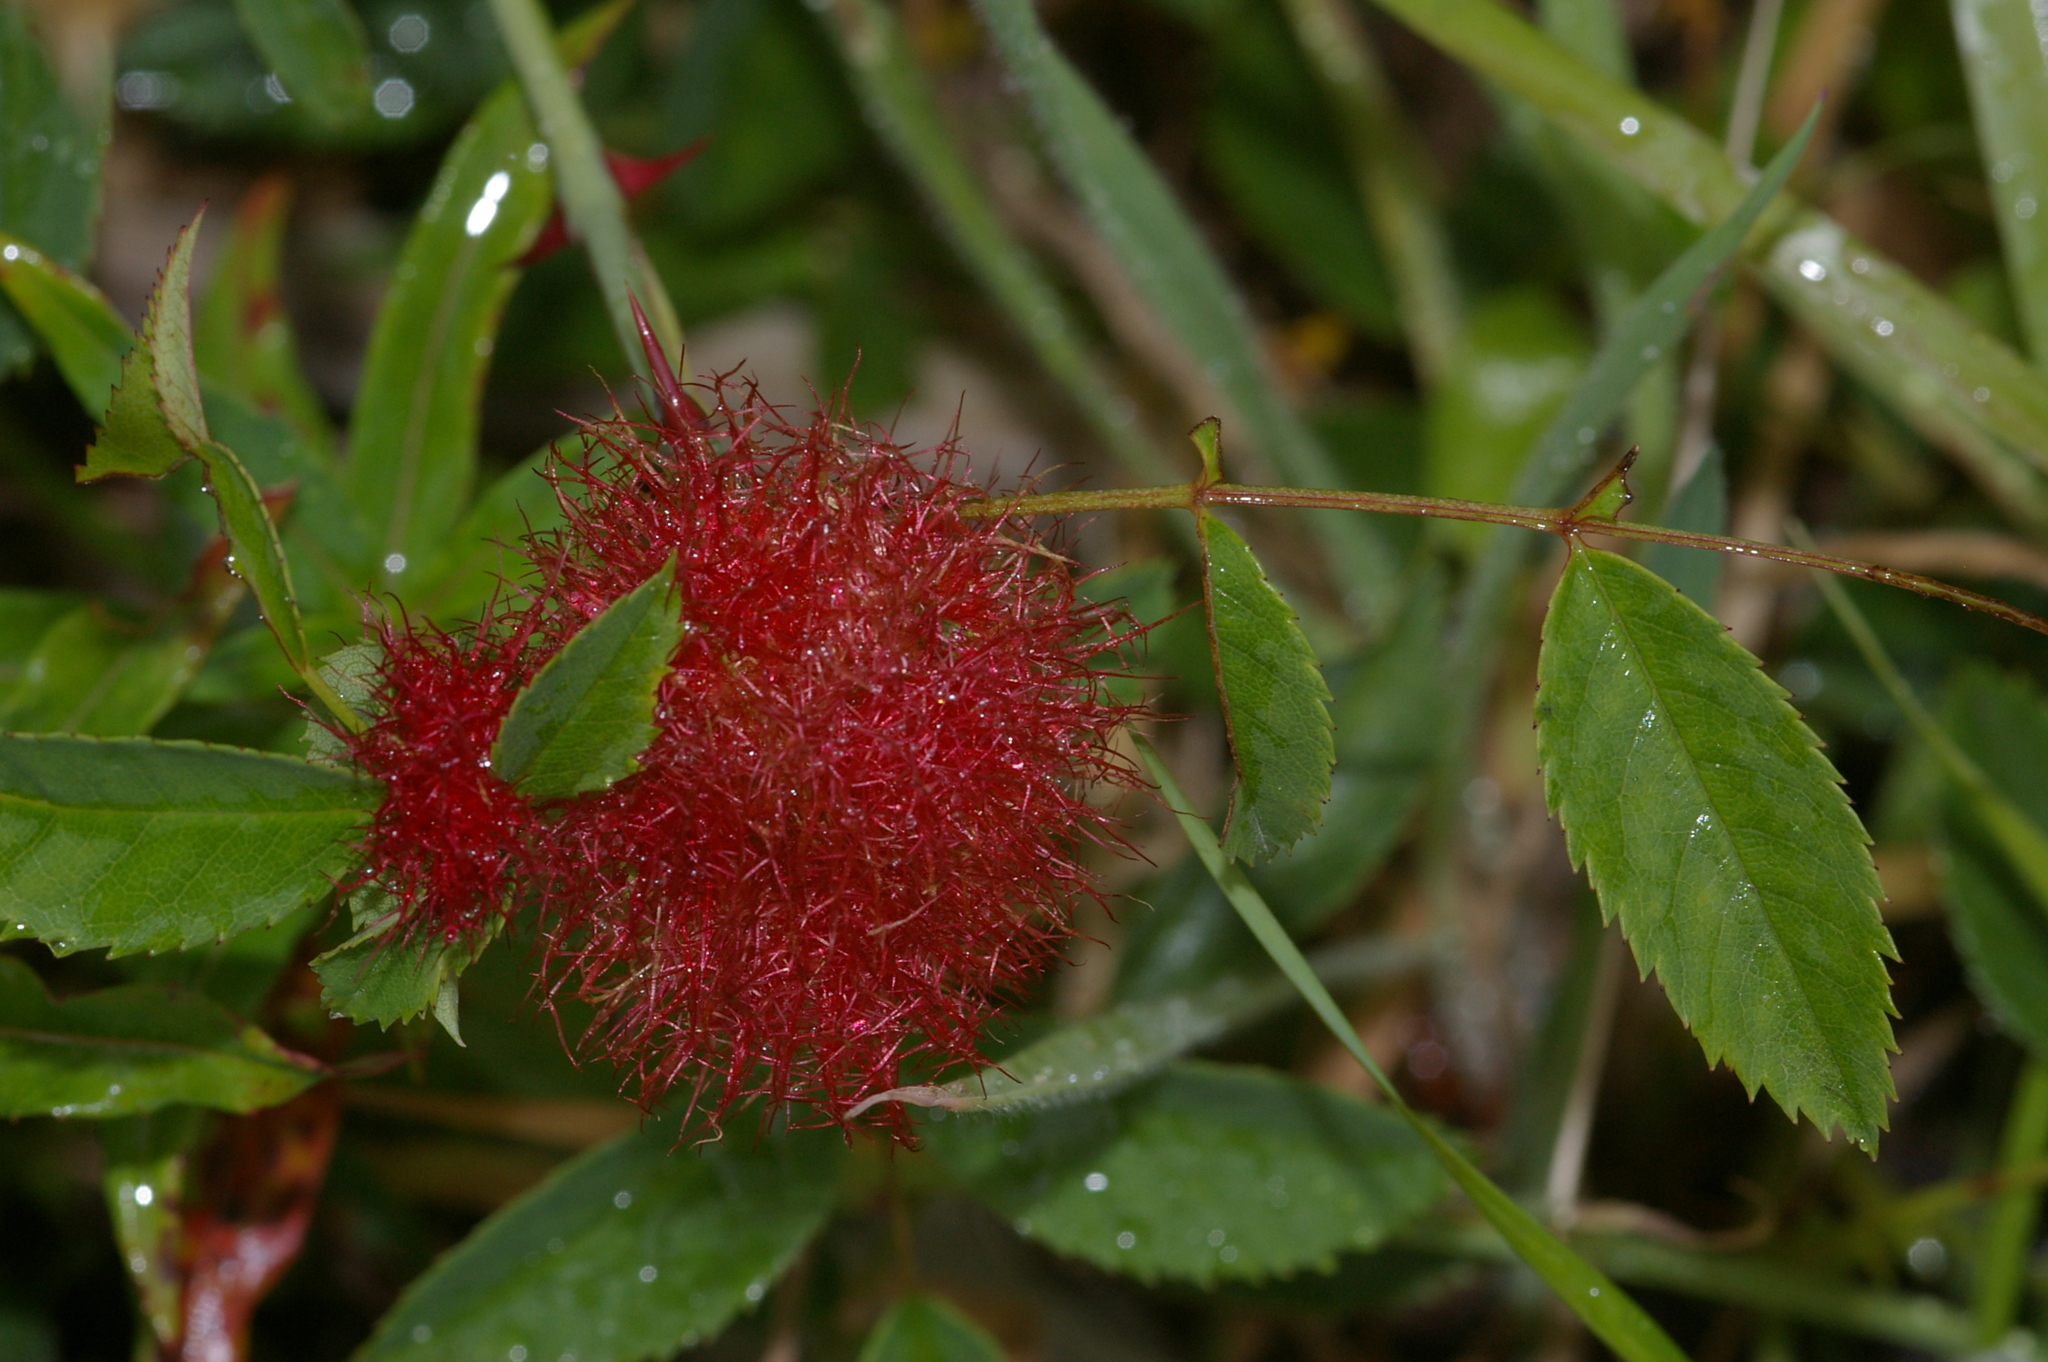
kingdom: Animalia
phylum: Arthropoda
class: Insecta
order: Hymenoptera
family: Cynipidae
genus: Diplolepis
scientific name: Diplolepis rosae
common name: Bedeguar gall
